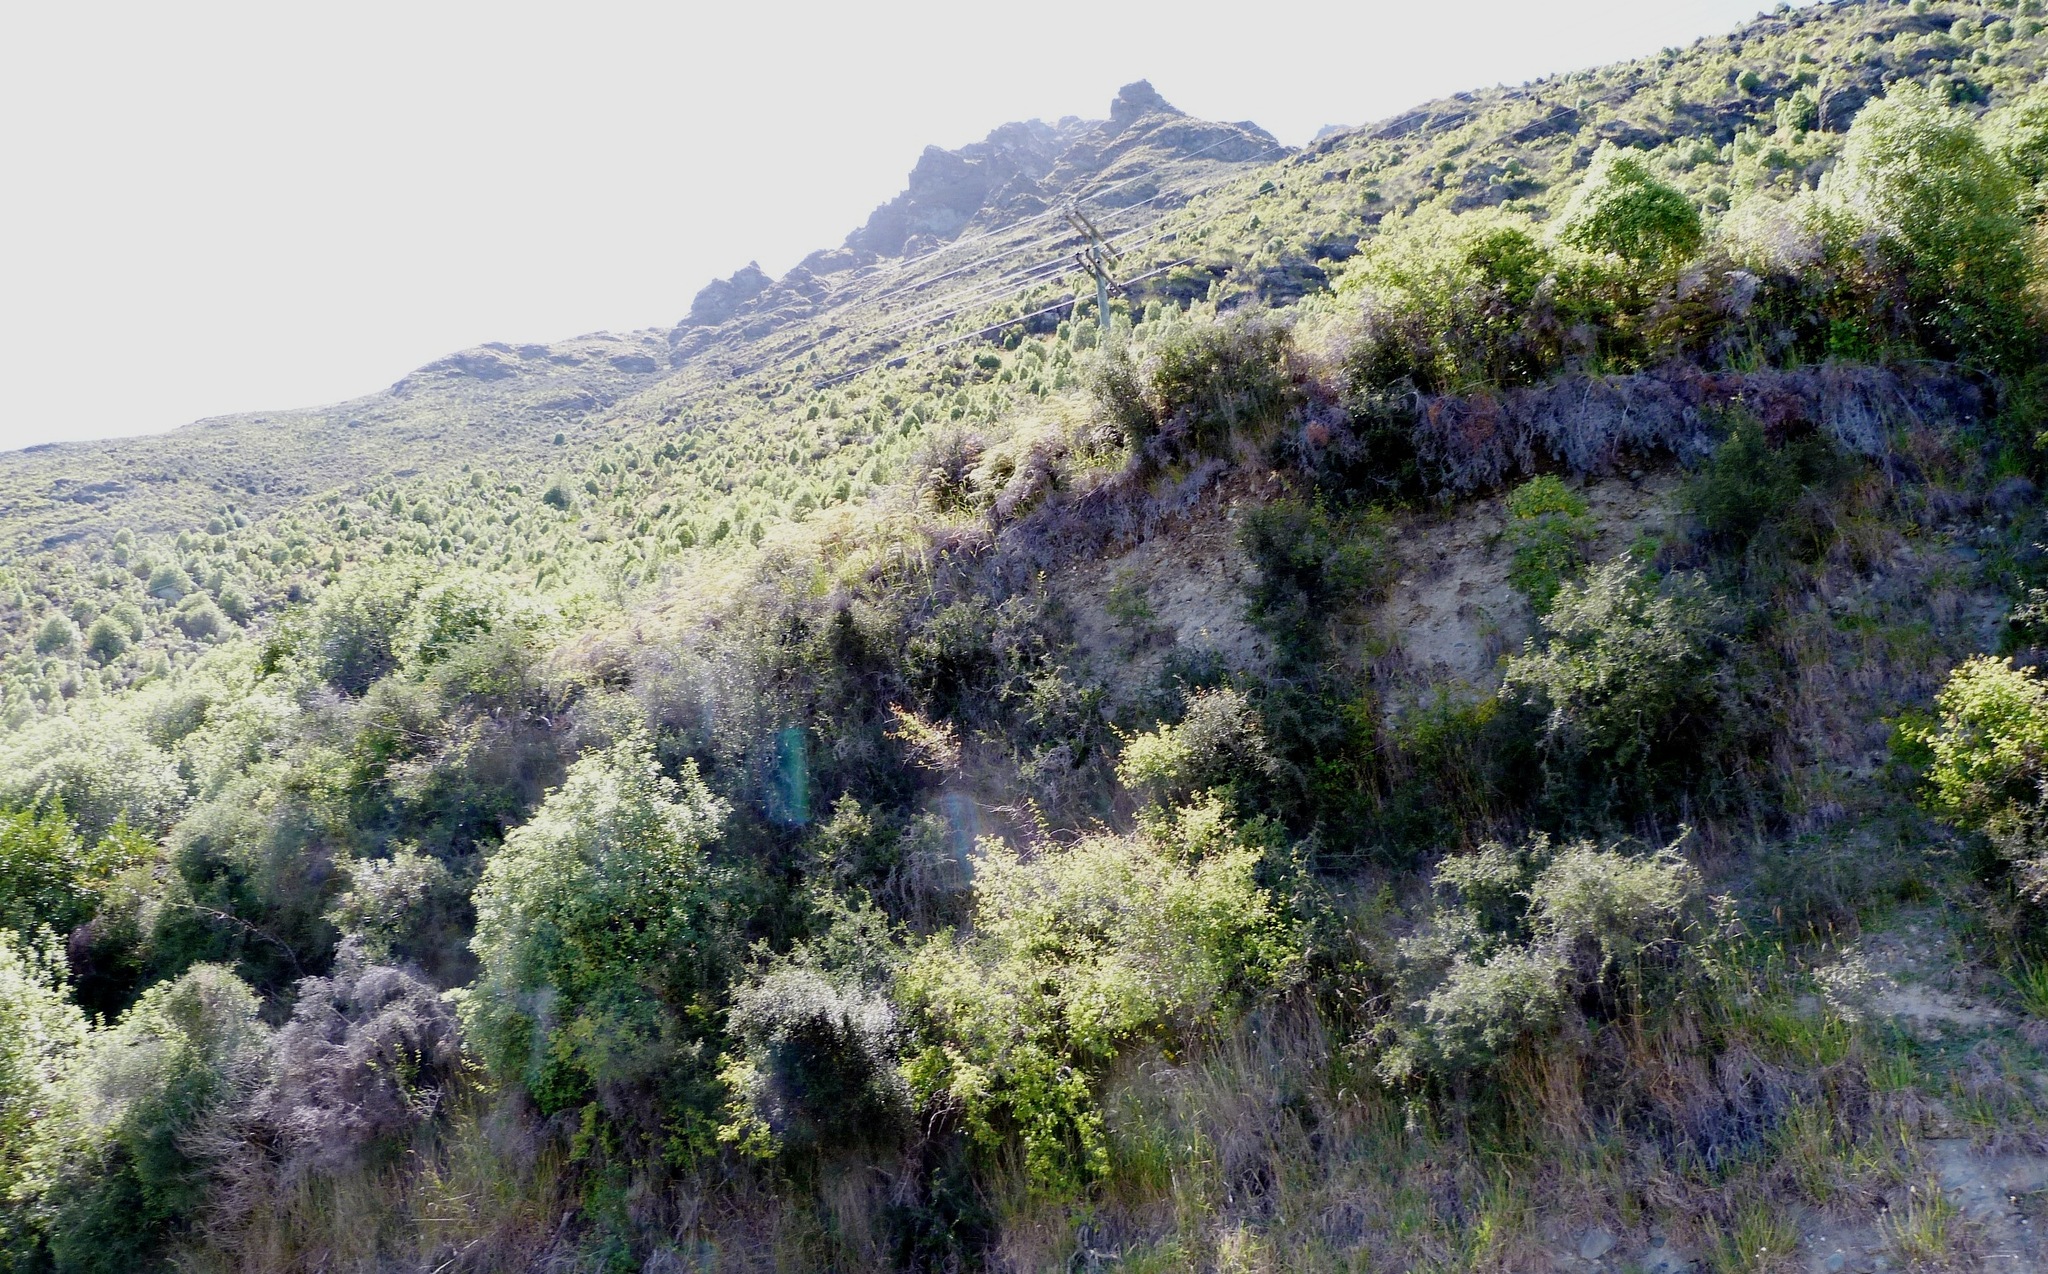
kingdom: Plantae
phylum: Tracheophyta
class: Magnoliopsida
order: Apiales
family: Pittosporaceae
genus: Pittosporum
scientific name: Pittosporum tenuifolium
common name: Kohuhu
